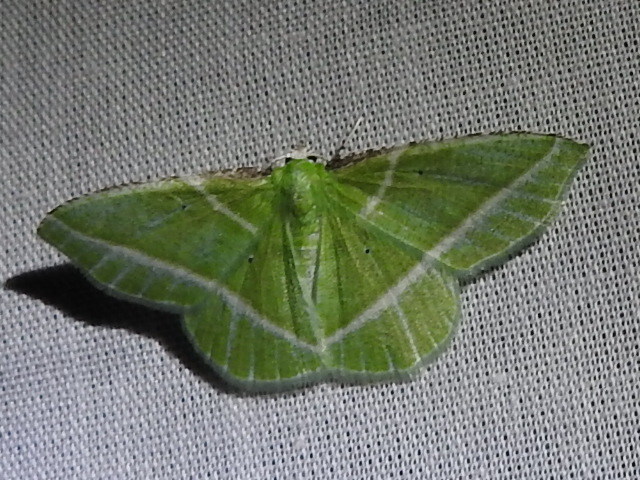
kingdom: Animalia
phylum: Arthropoda
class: Insecta
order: Lepidoptera
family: Geometridae
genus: Dichorda
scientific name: Dichorda consequaria
